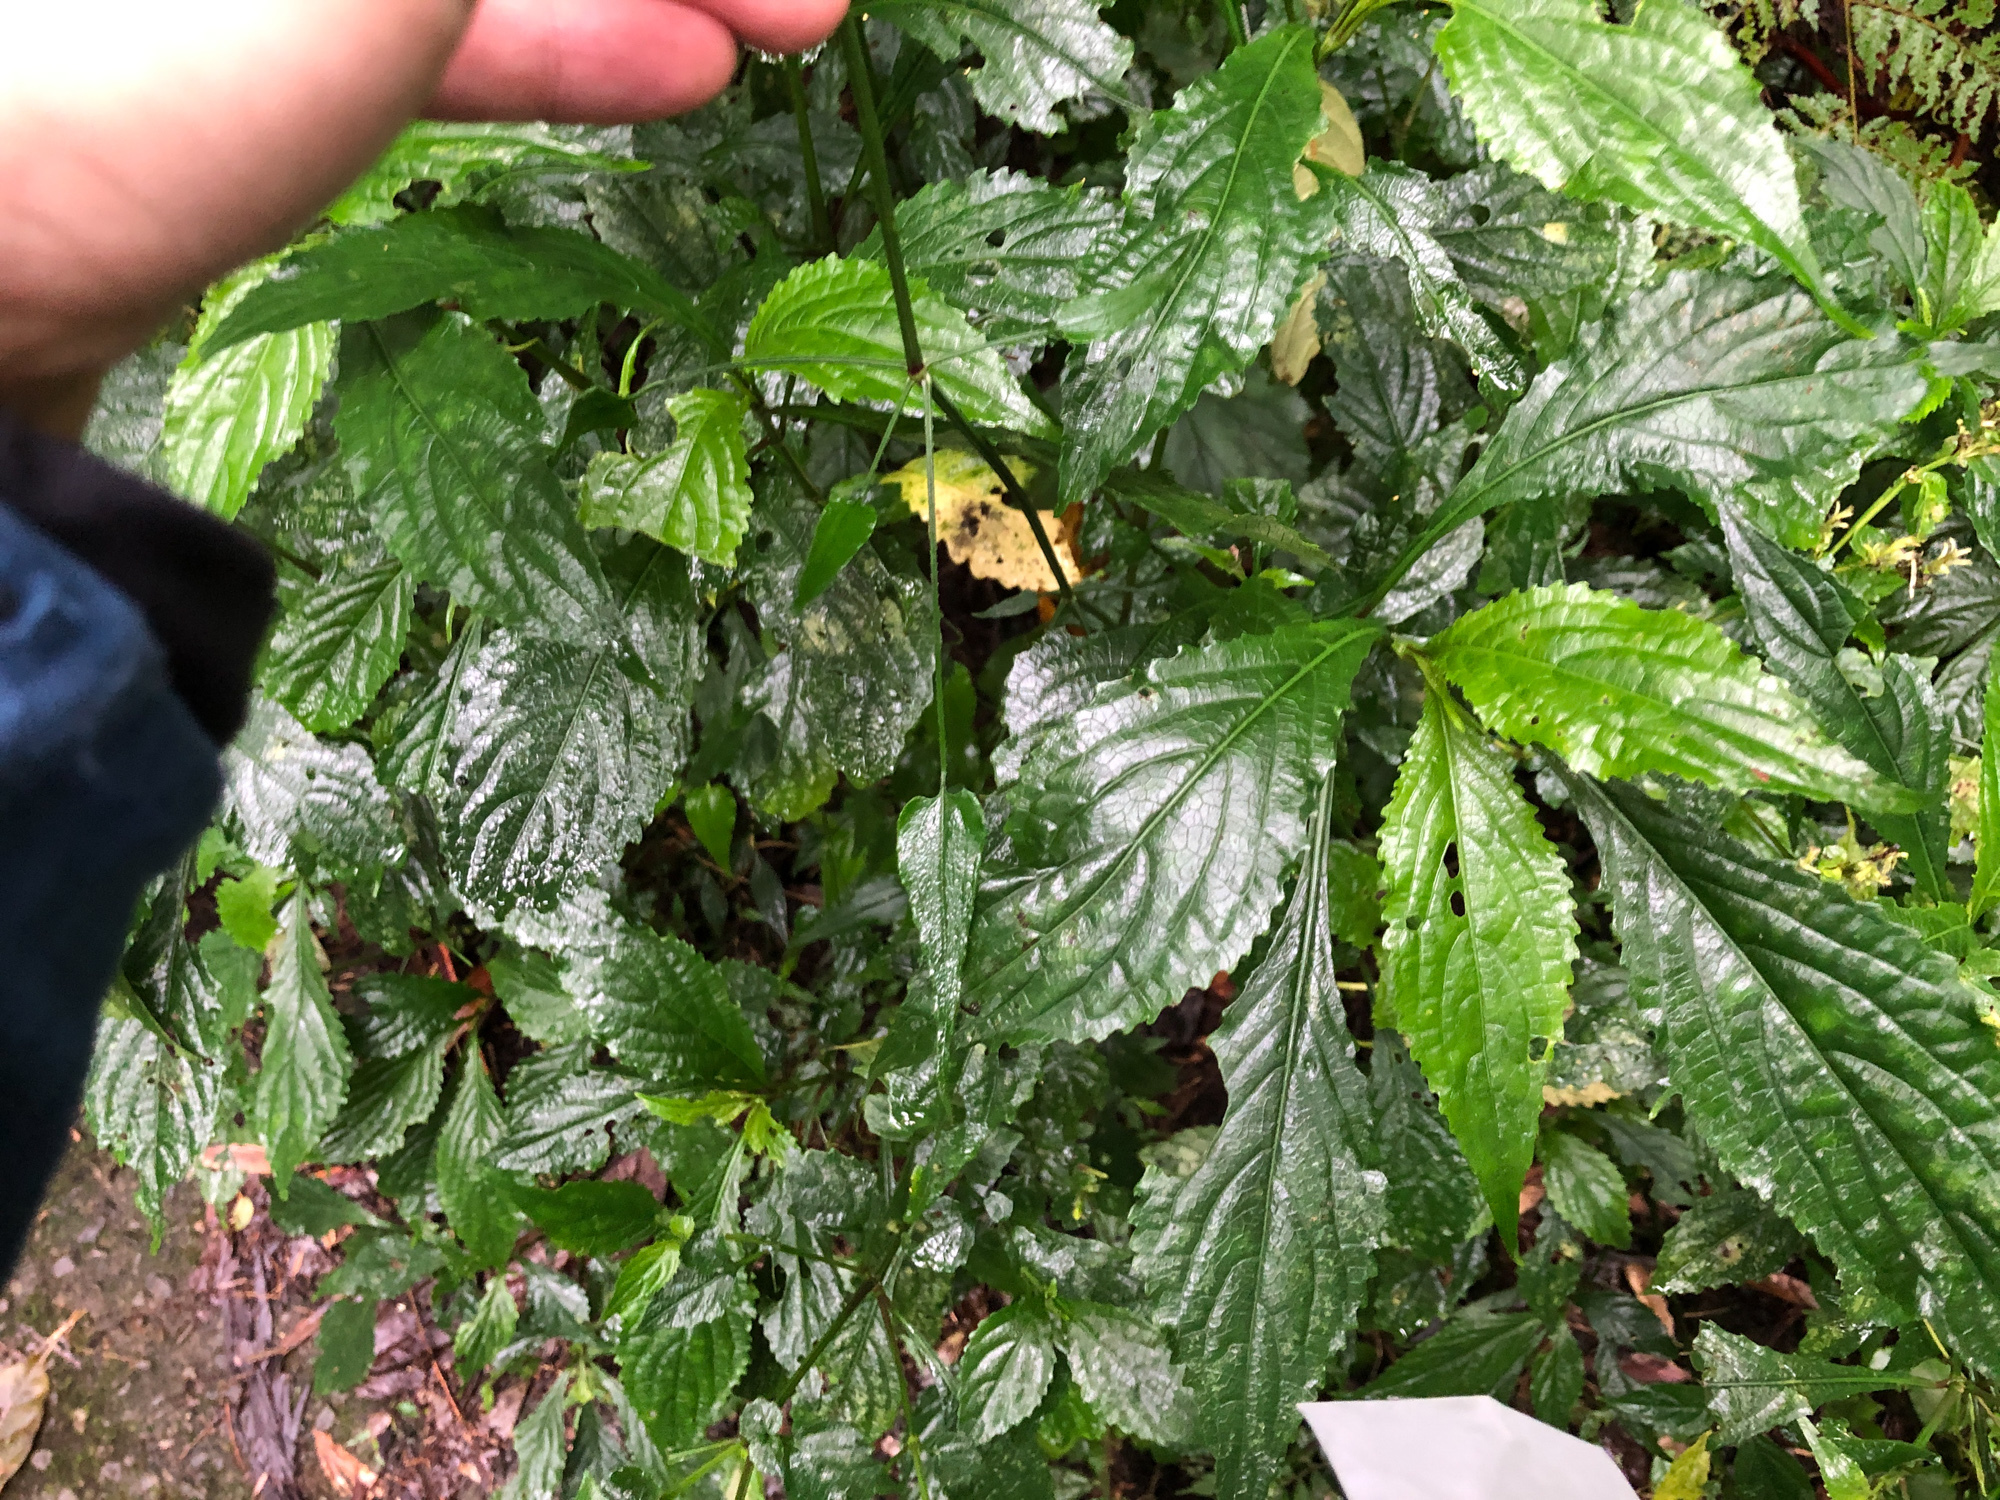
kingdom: Plantae
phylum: Tracheophyta
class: Magnoliopsida
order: Gentianales
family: Rubiaceae
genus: Rubia
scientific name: Rubia alata
